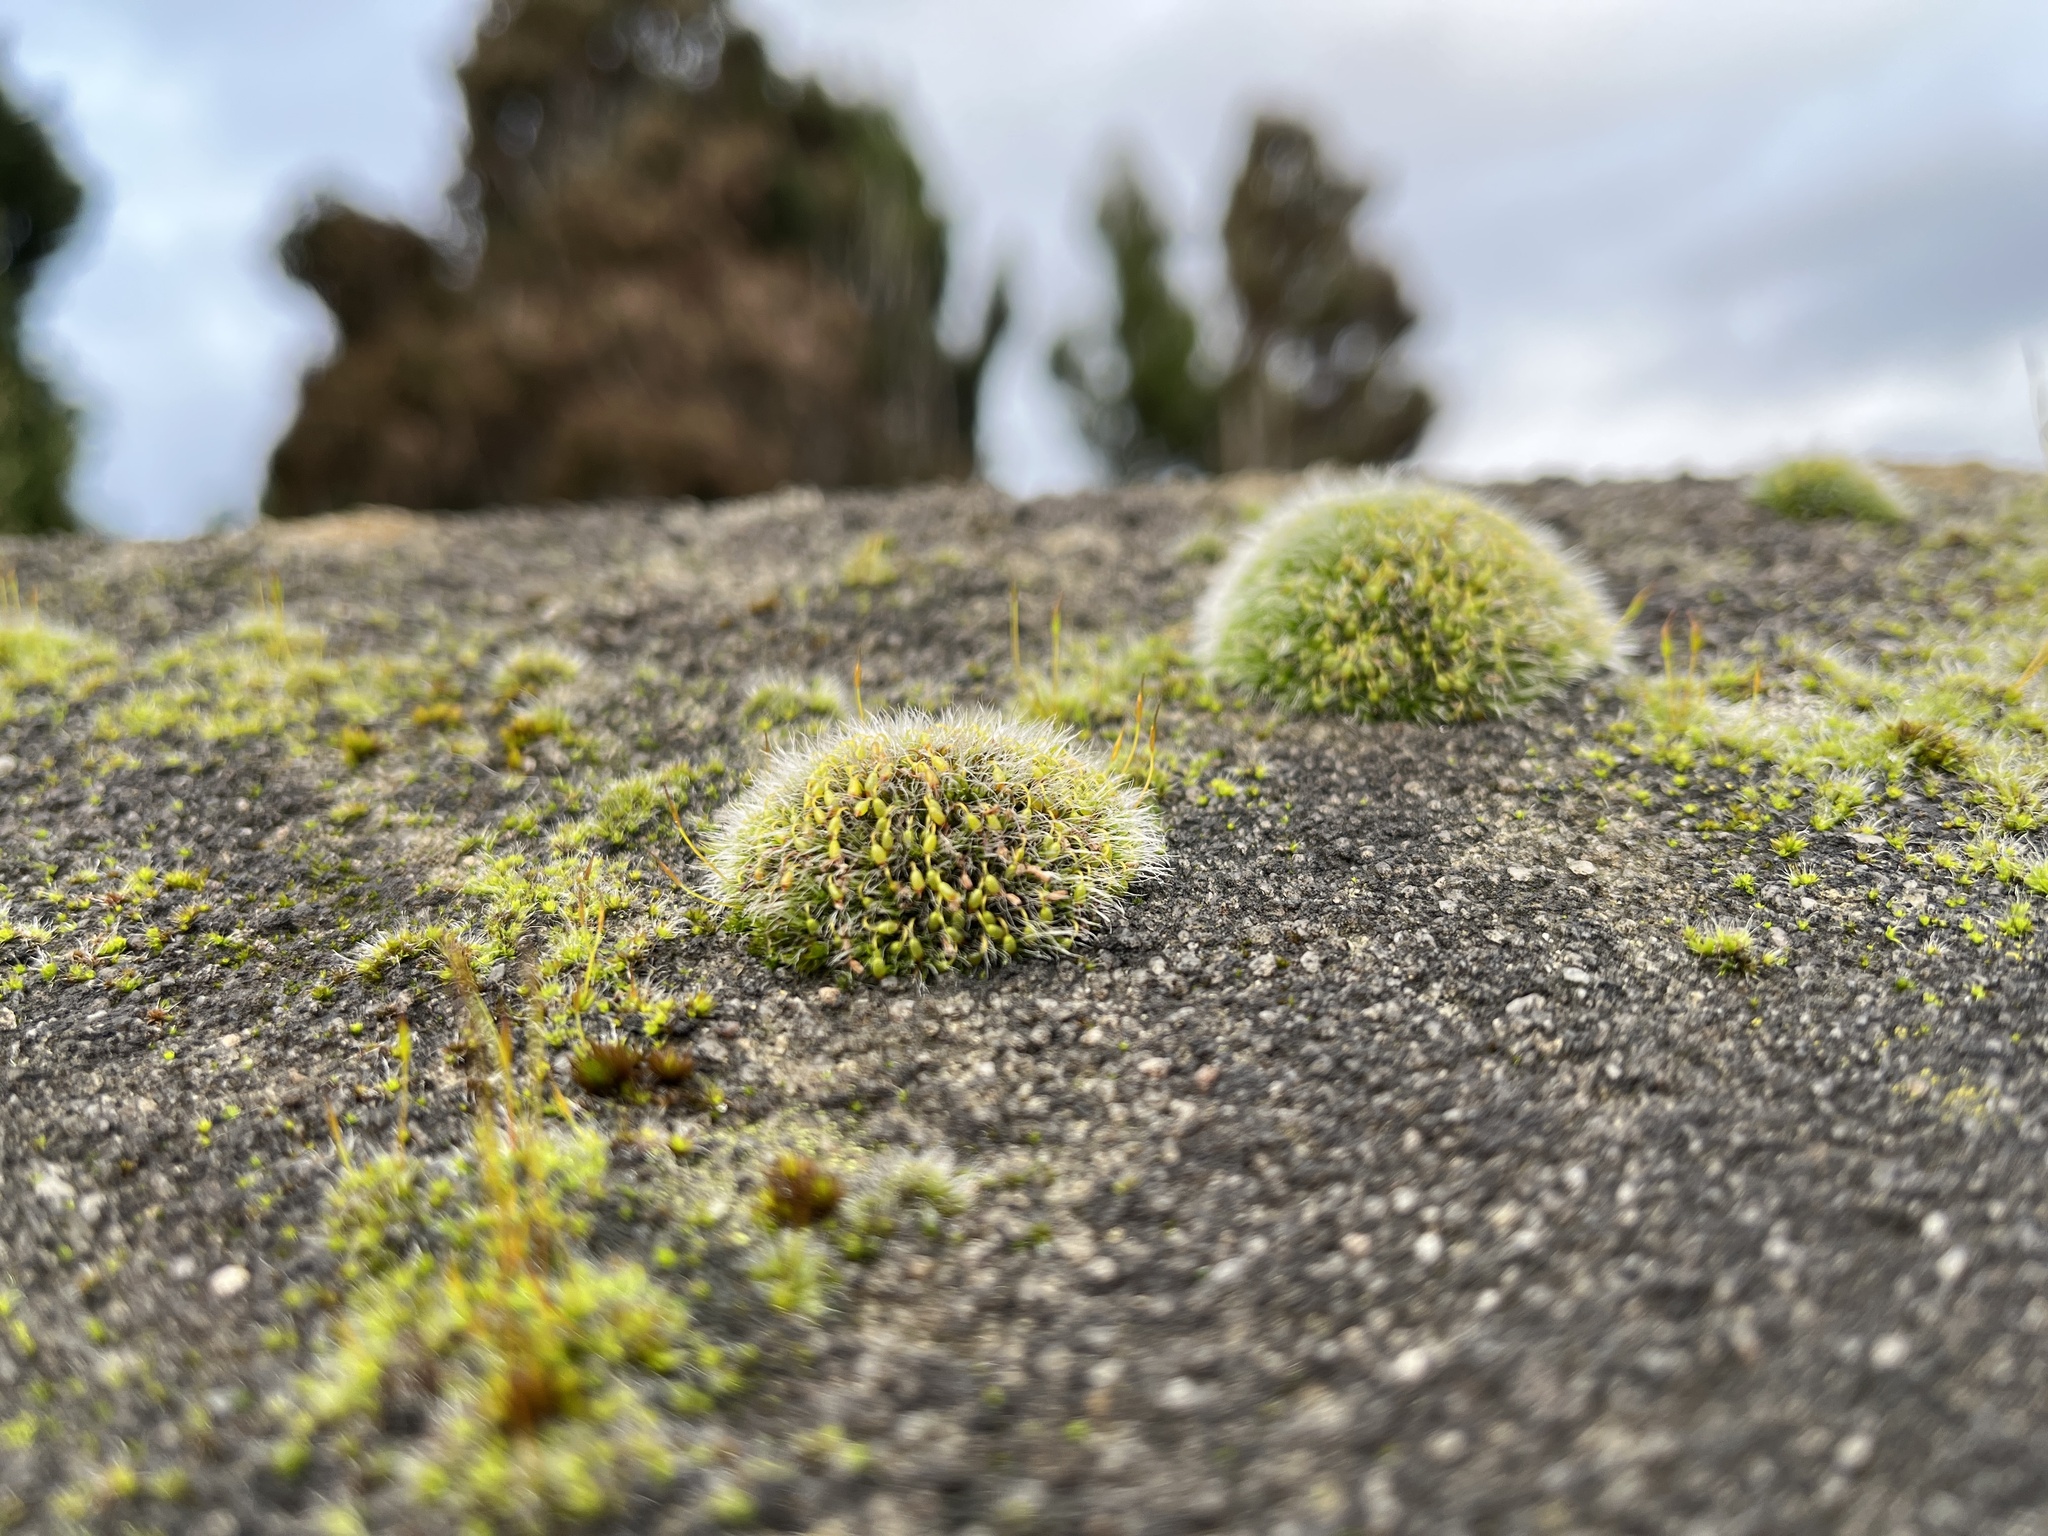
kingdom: Plantae
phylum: Bryophyta
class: Bryopsida
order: Grimmiales
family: Grimmiaceae
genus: Grimmia
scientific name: Grimmia pulvinata
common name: Grey-cushioned grimmia
